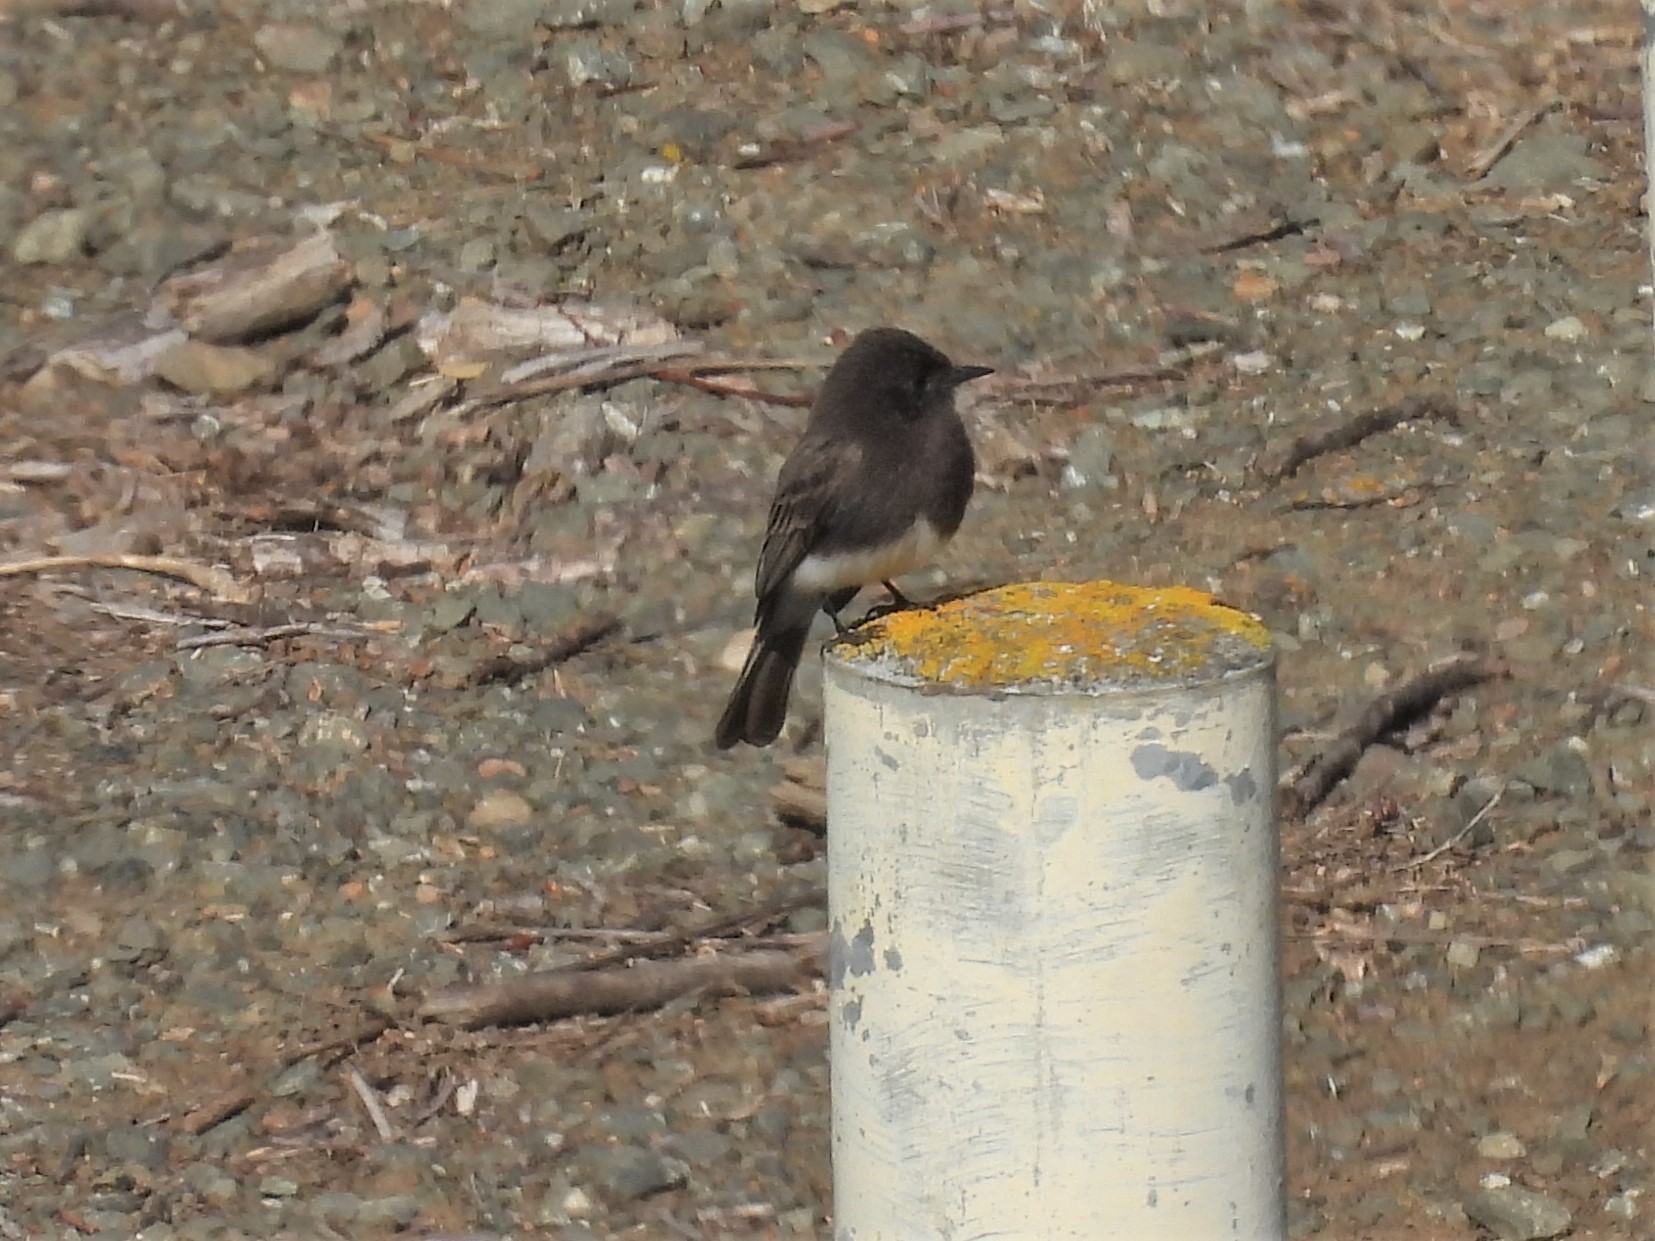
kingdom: Animalia
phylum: Chordata
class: Aves
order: Passeriformes
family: Tyrannidae
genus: Sayornis
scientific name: Sayornis nigricans
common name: Black phoebe
